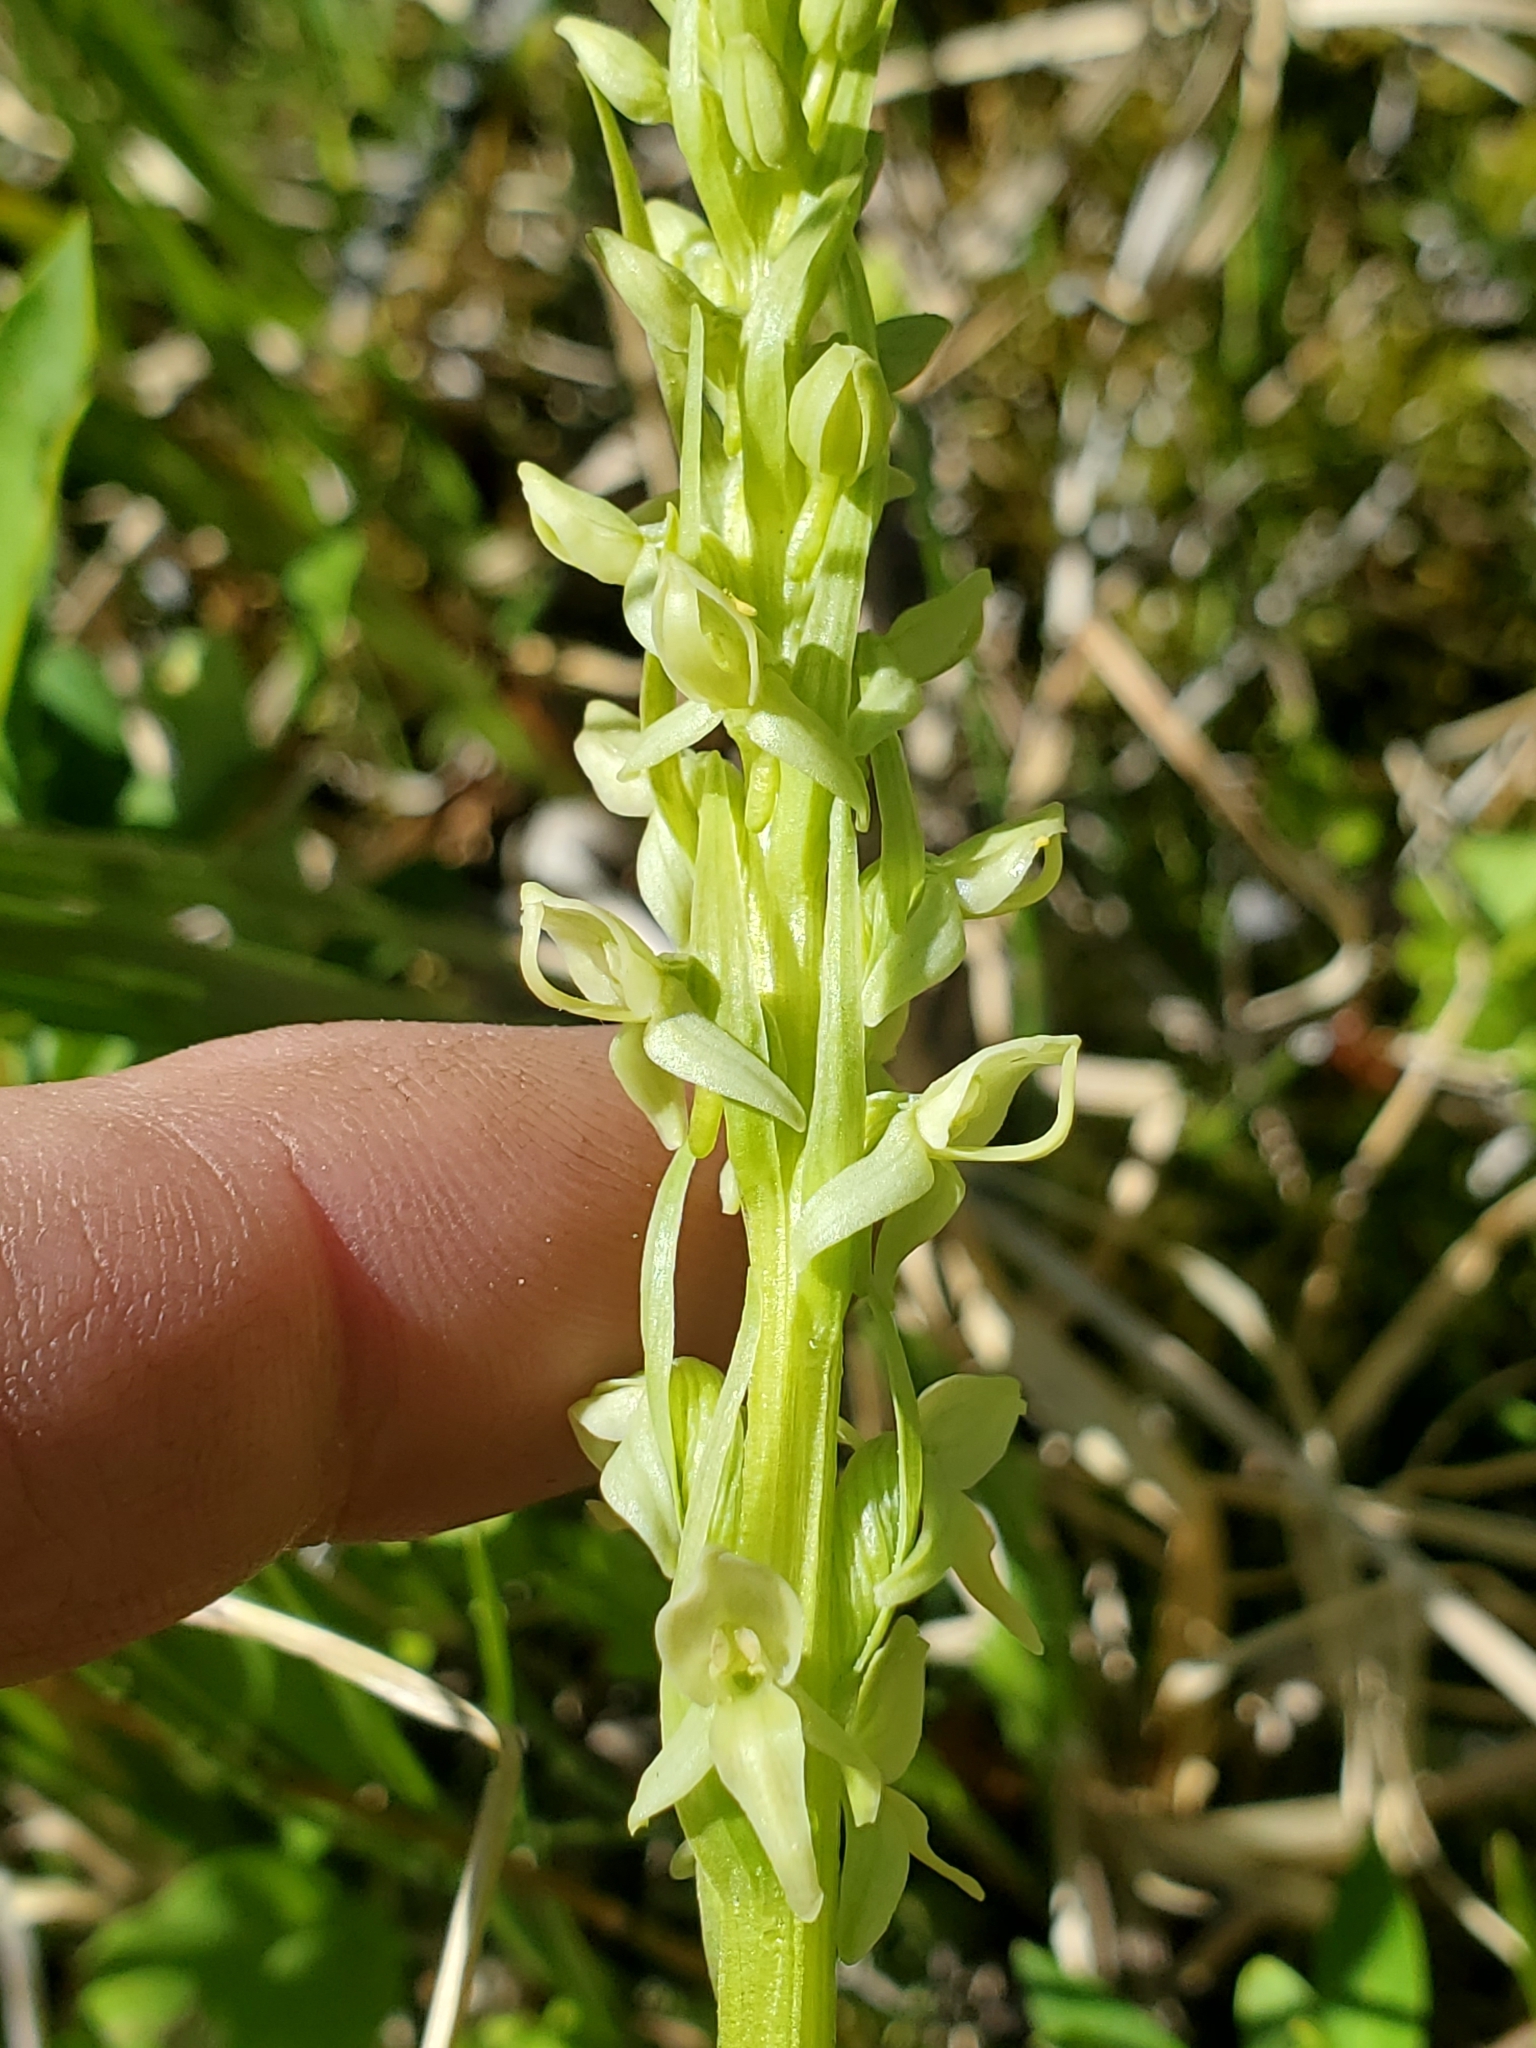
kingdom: Plantae
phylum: Tracheophyta
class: Liliopsida
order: Asparagales
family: Orchidaceae
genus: Platanthera
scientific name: Platanthera huronensis
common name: Fragrant green orchid
